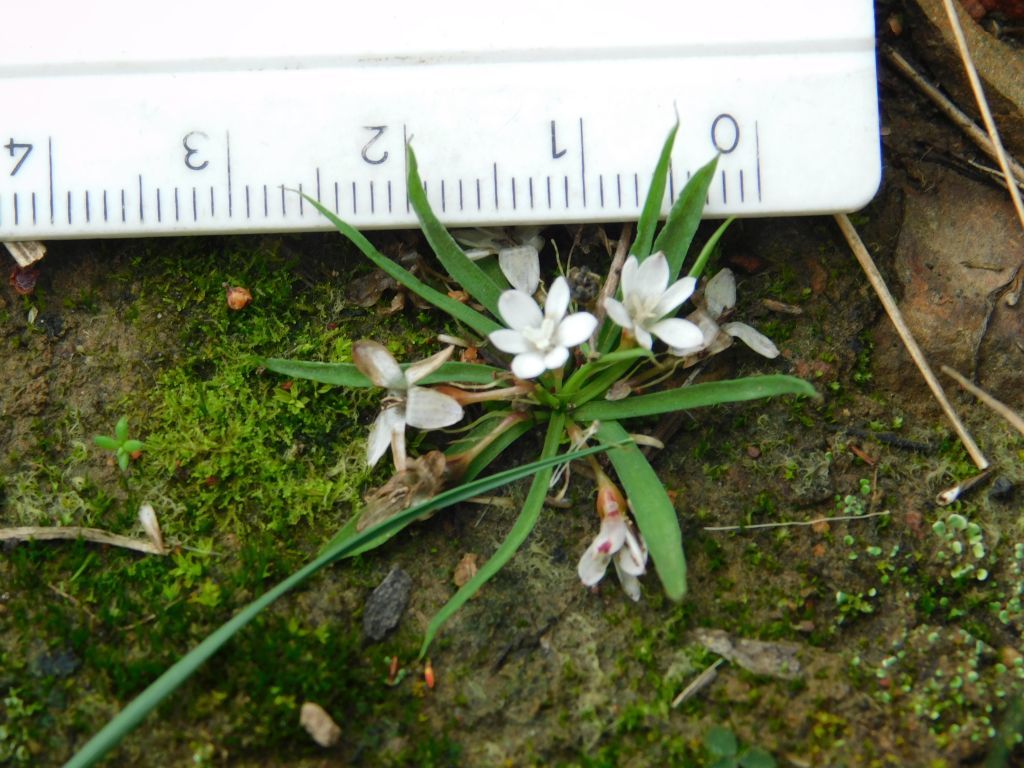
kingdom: Plantae
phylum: Tracheophyta
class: Liliopsida
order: Asparagales
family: Hypoxidaceae
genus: Pauridia
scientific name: Pauridia minuta
